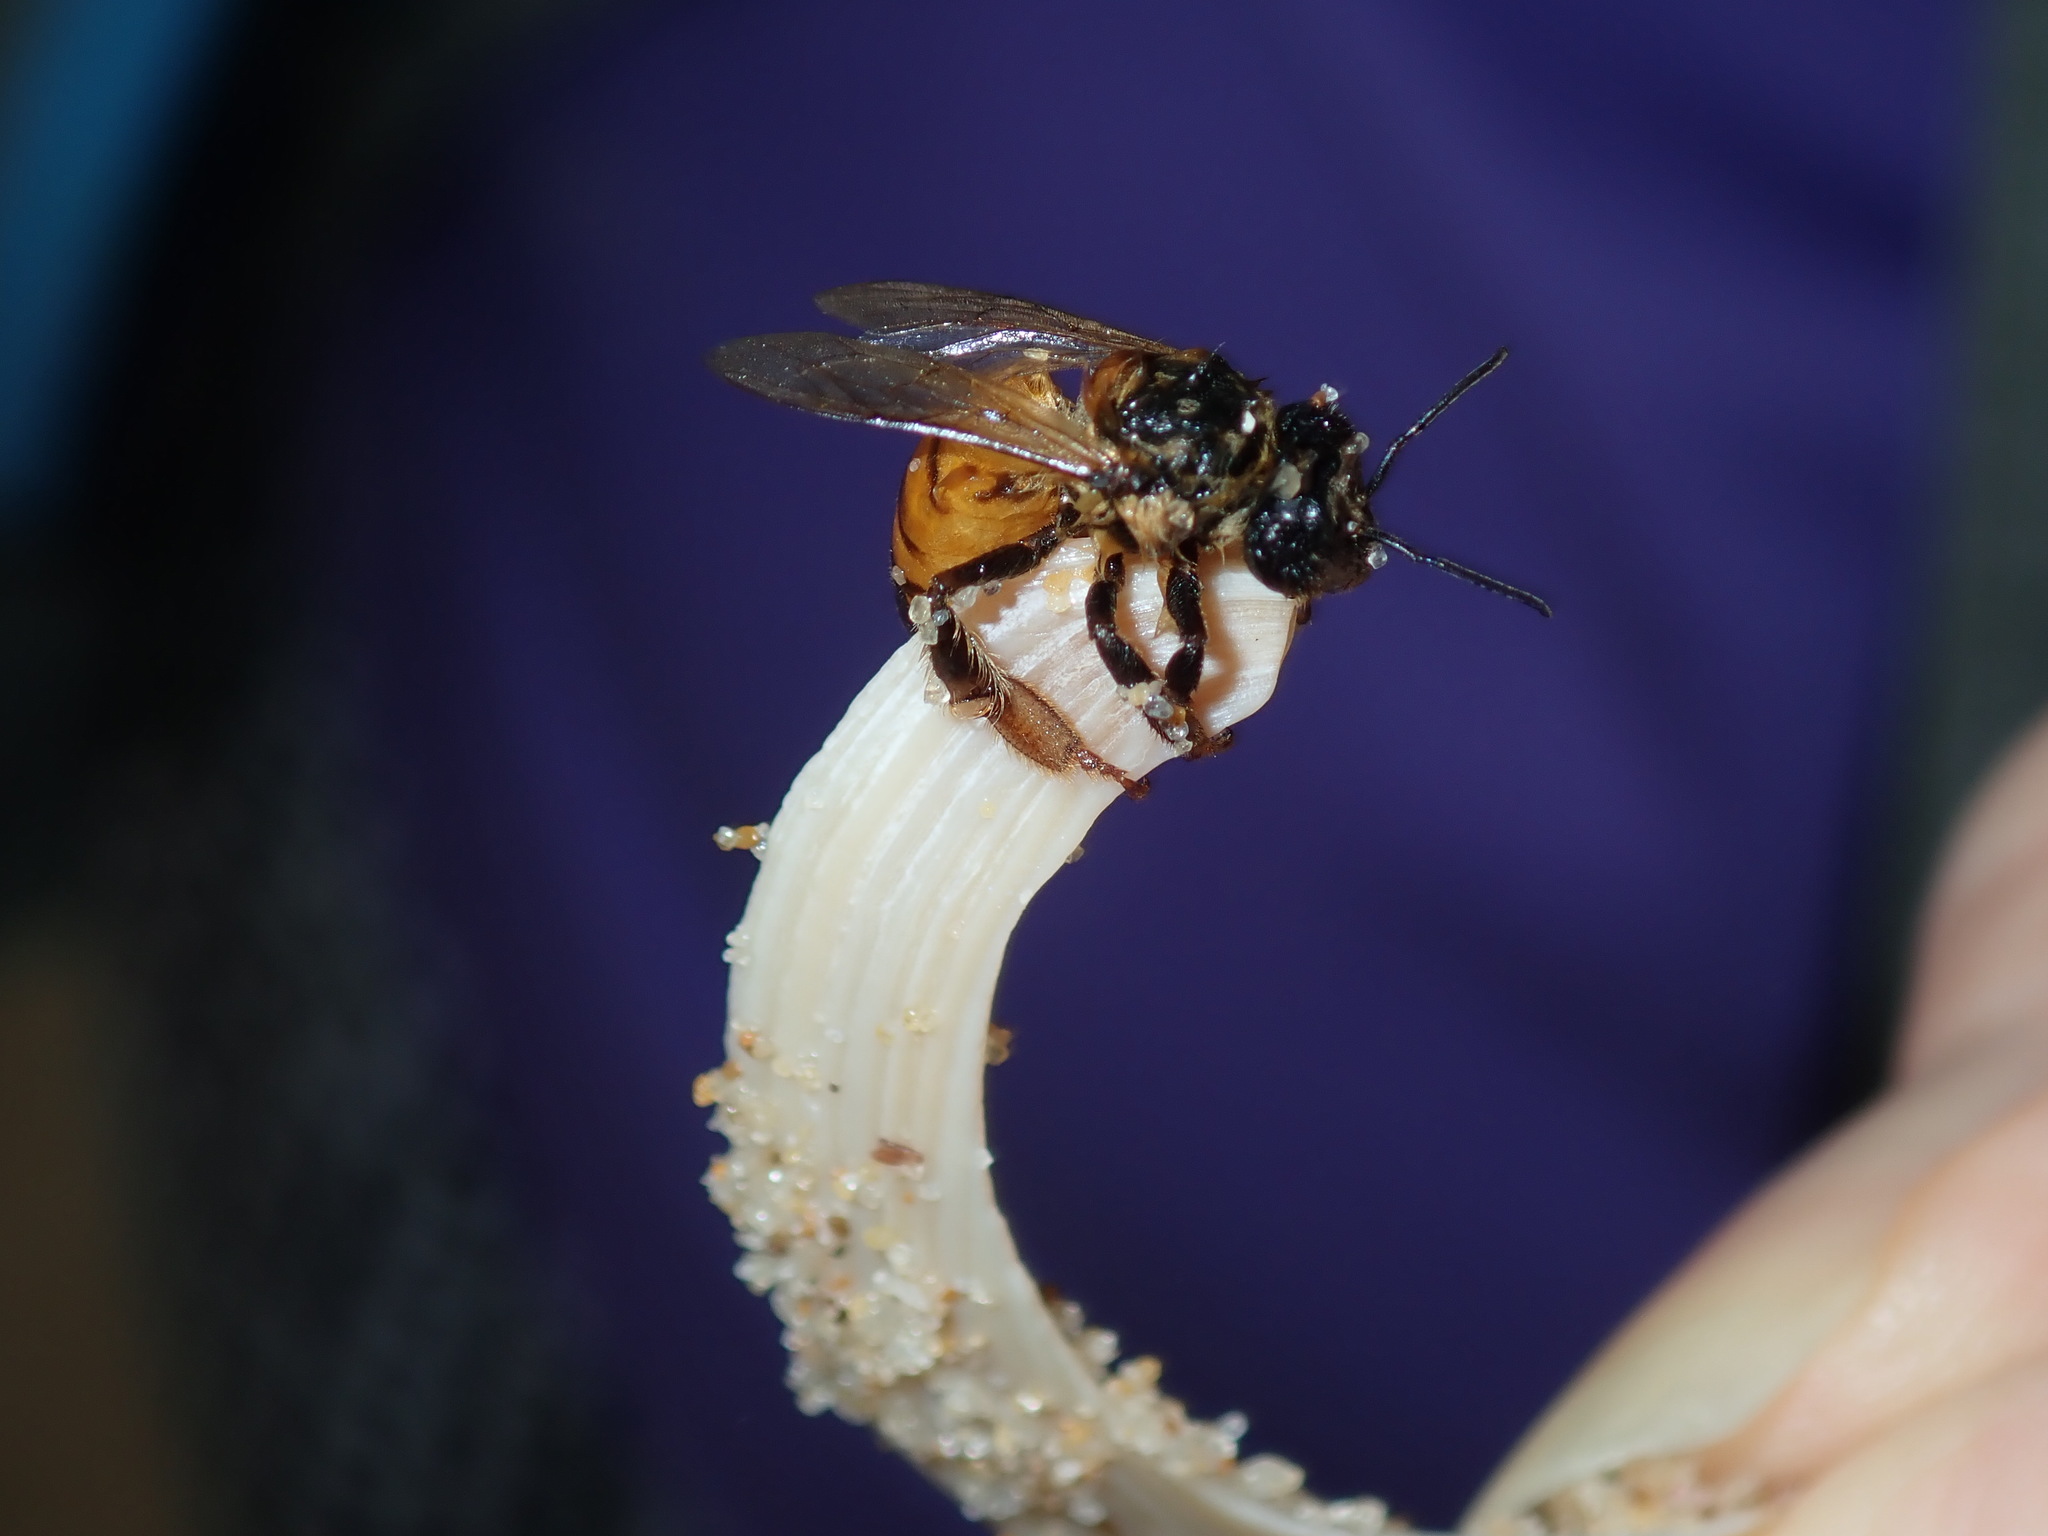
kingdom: Animalia
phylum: Arthropoda
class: Insecta
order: Hymenoptera
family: Apidae
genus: Apis
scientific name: Apis mellifera
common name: Honey bee
